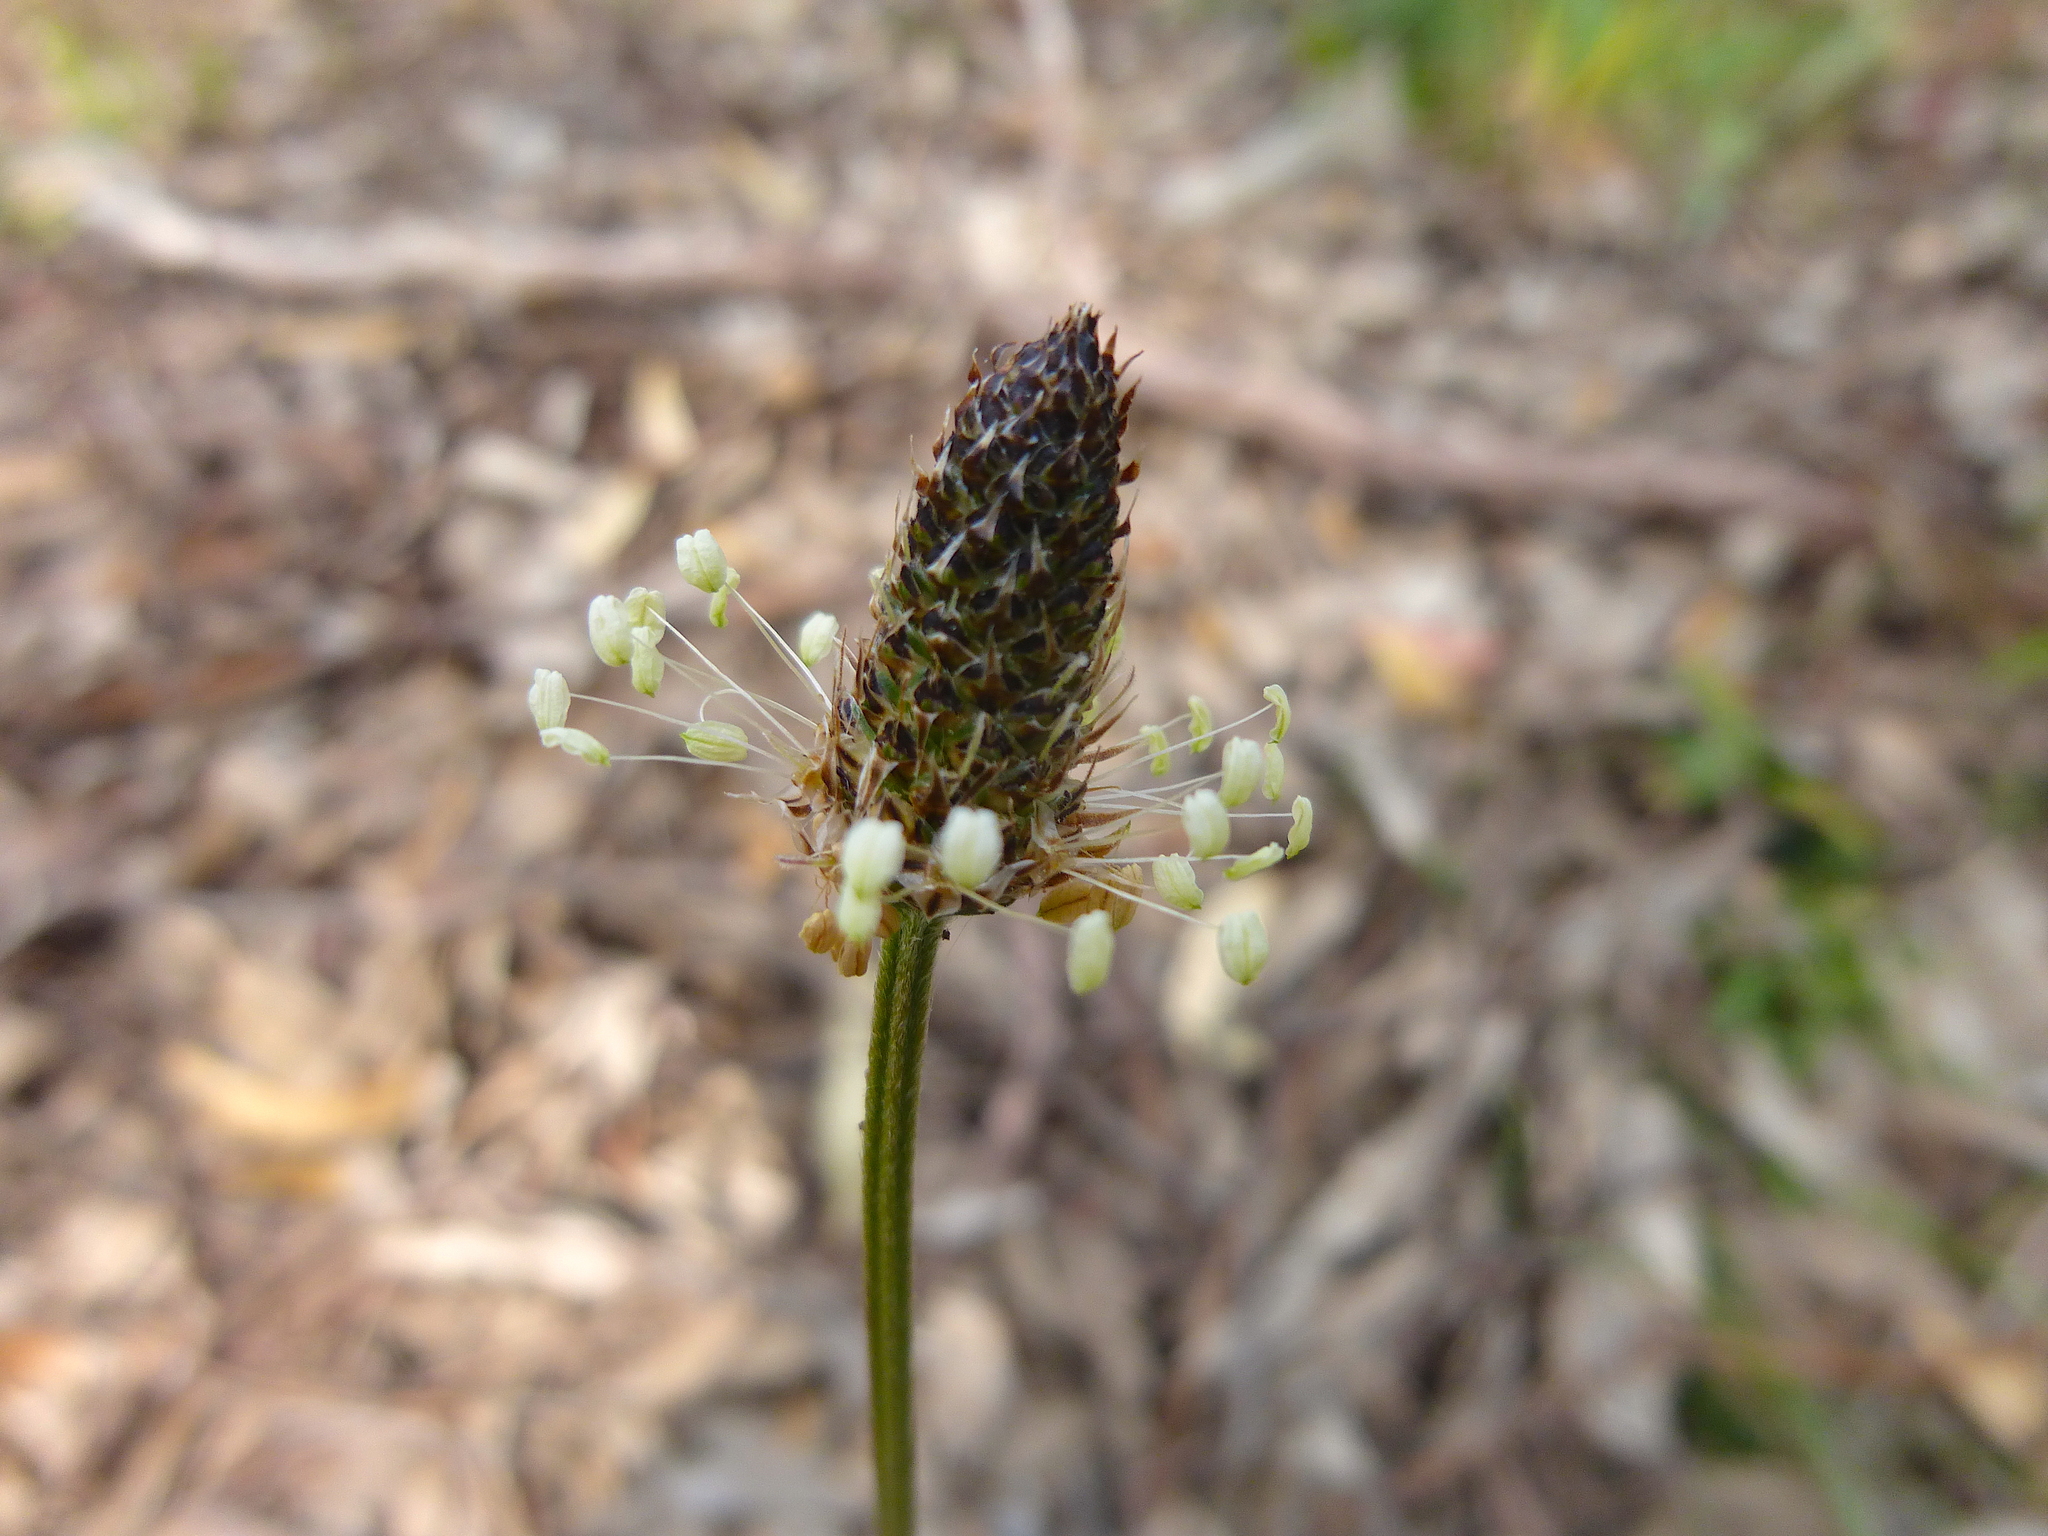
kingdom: Plantae
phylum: Tracheophyta
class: Magnoliopsida
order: Lamiales
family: Plantaginaceae
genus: Plantago
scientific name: Plantago lanceolata
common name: Ribwort plantain
